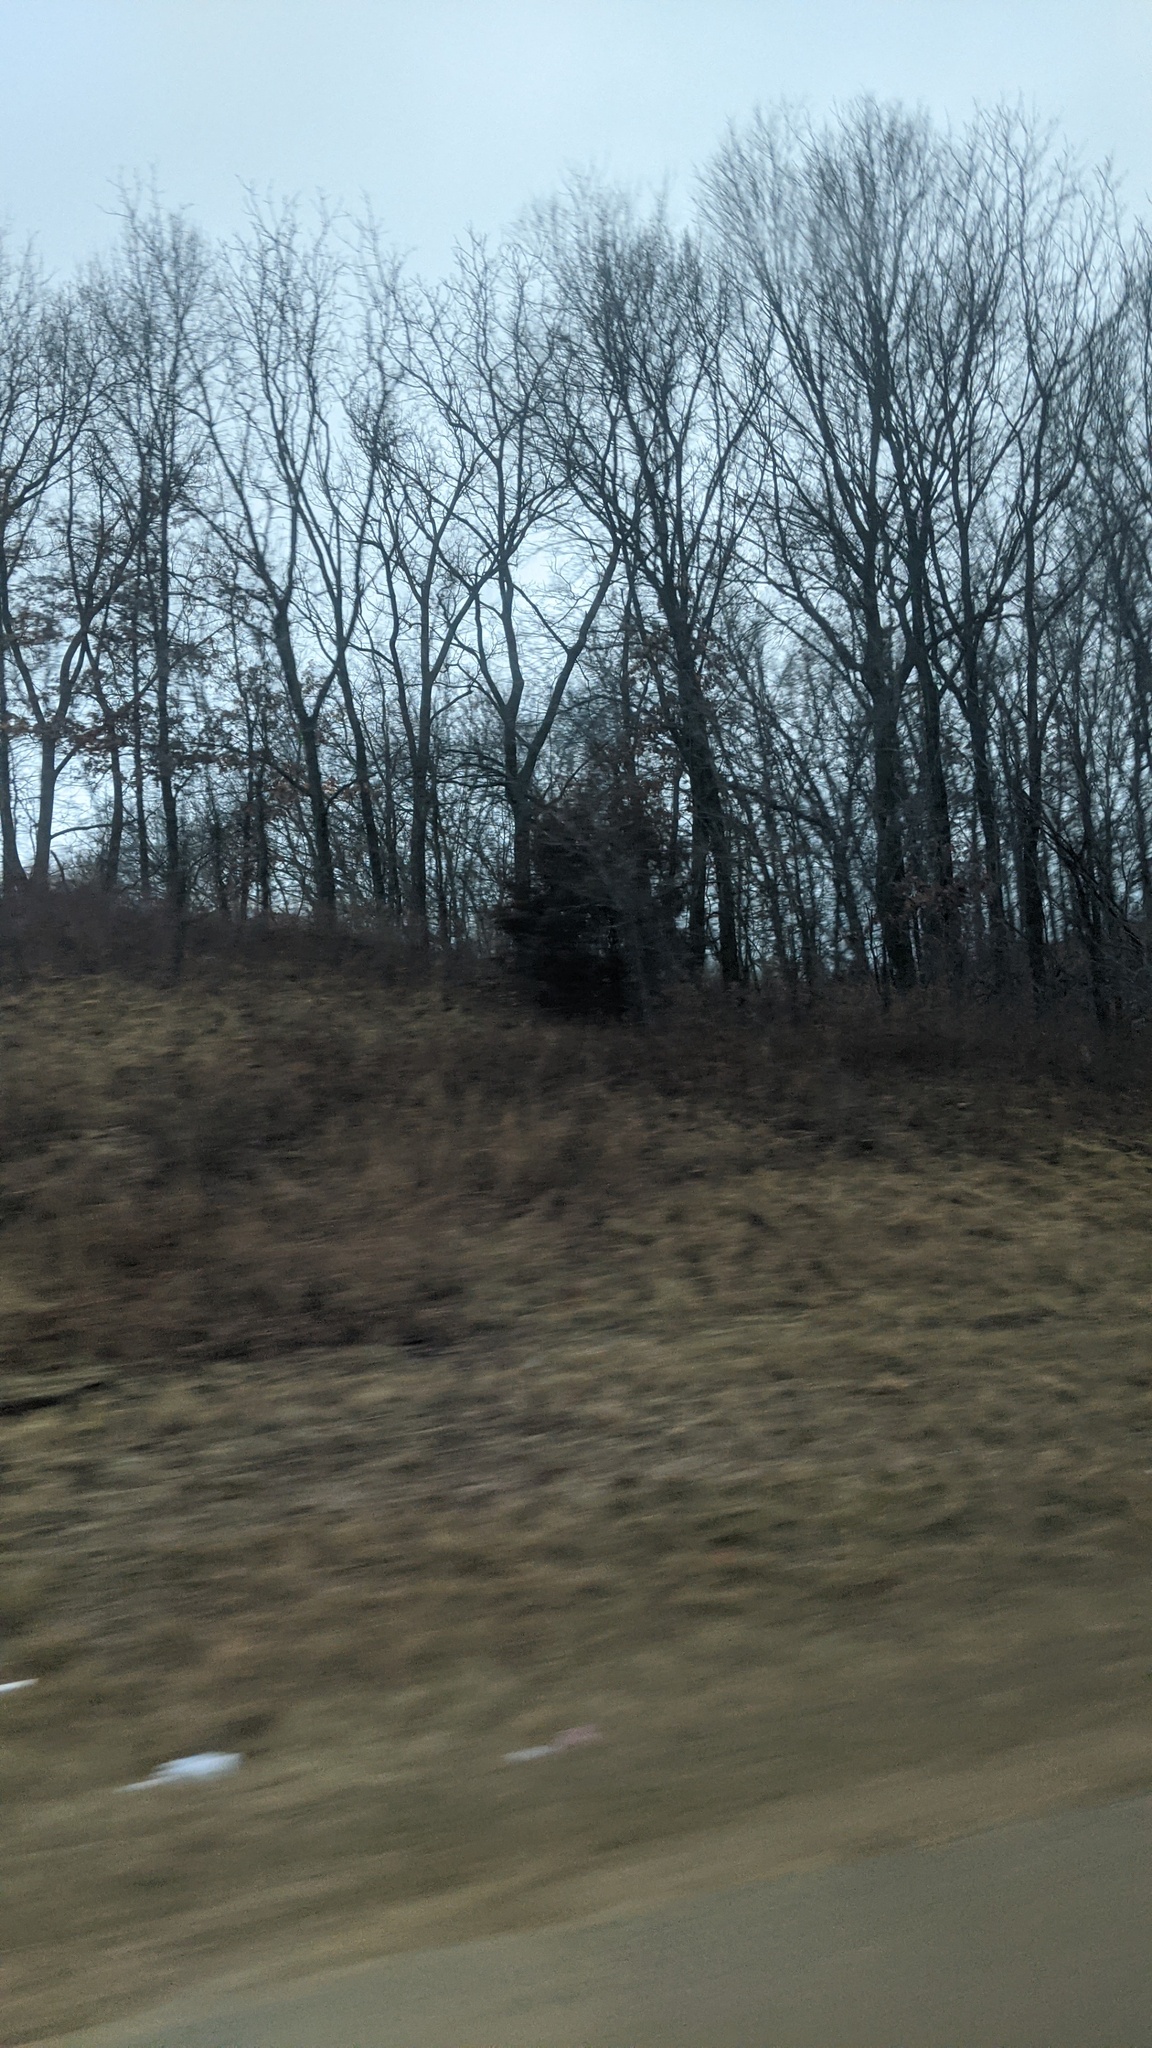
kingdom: Plantae
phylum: Tracheophyta
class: Pinopsida
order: Pinales
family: Cupressaceae
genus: Juniperus
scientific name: Juniperus virginiana
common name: Red juniper
